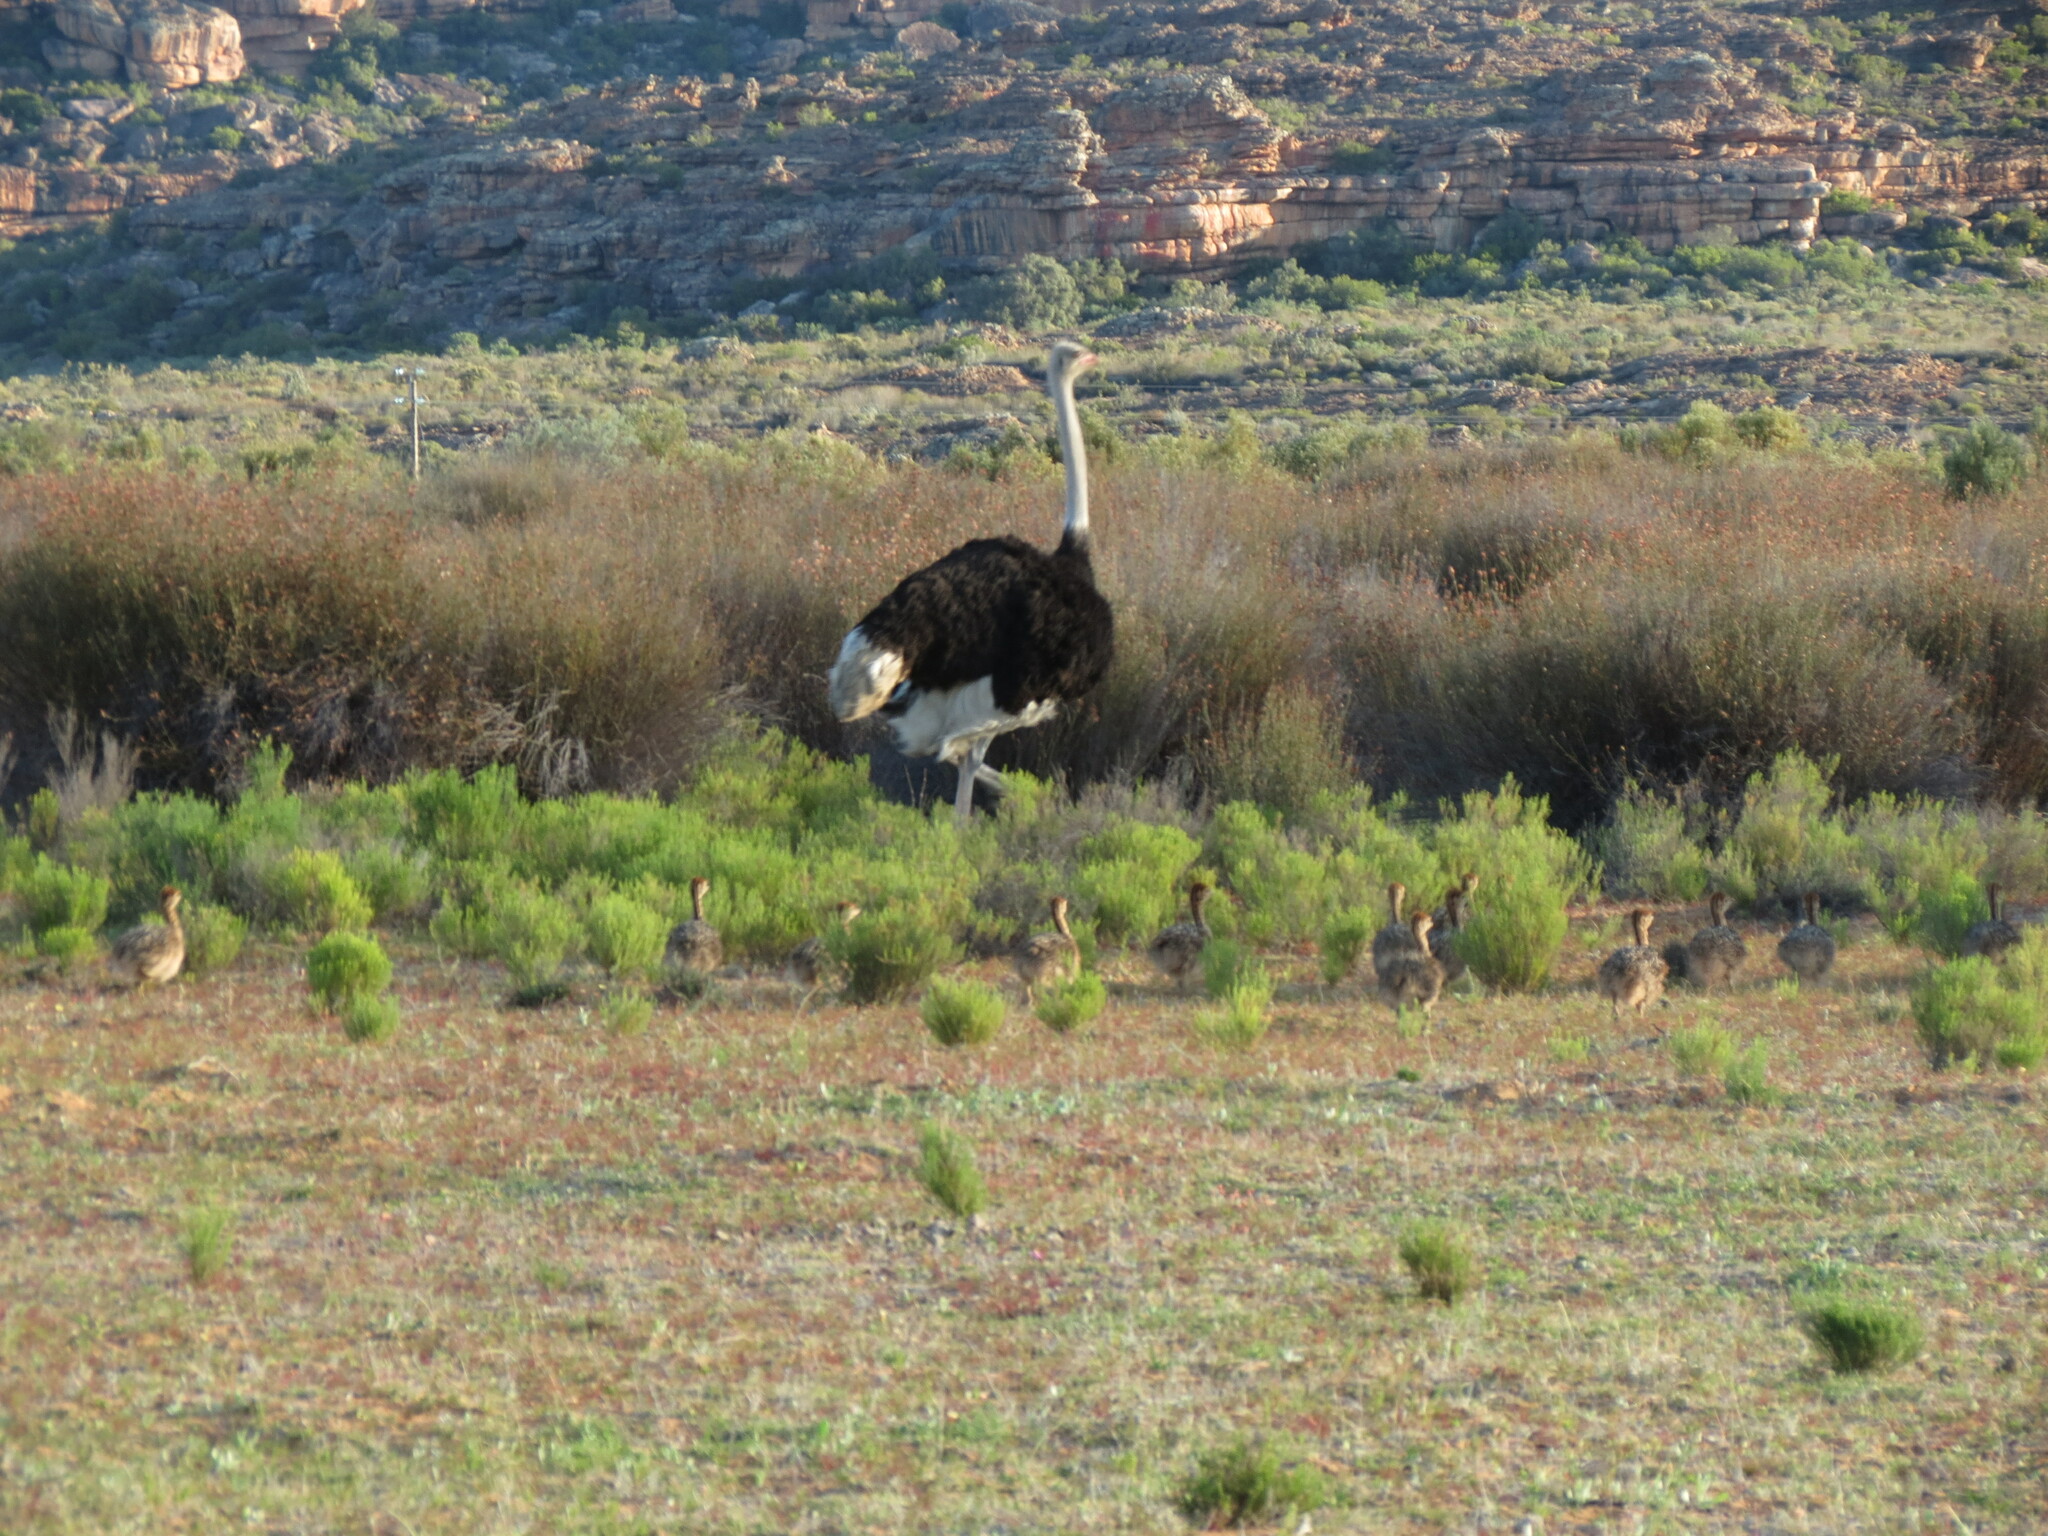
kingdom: Animalia
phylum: Chordata
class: Aves
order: Struthioniformes
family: Struthionidae
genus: Struthio
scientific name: Struthio camelus
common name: Common ostrich
